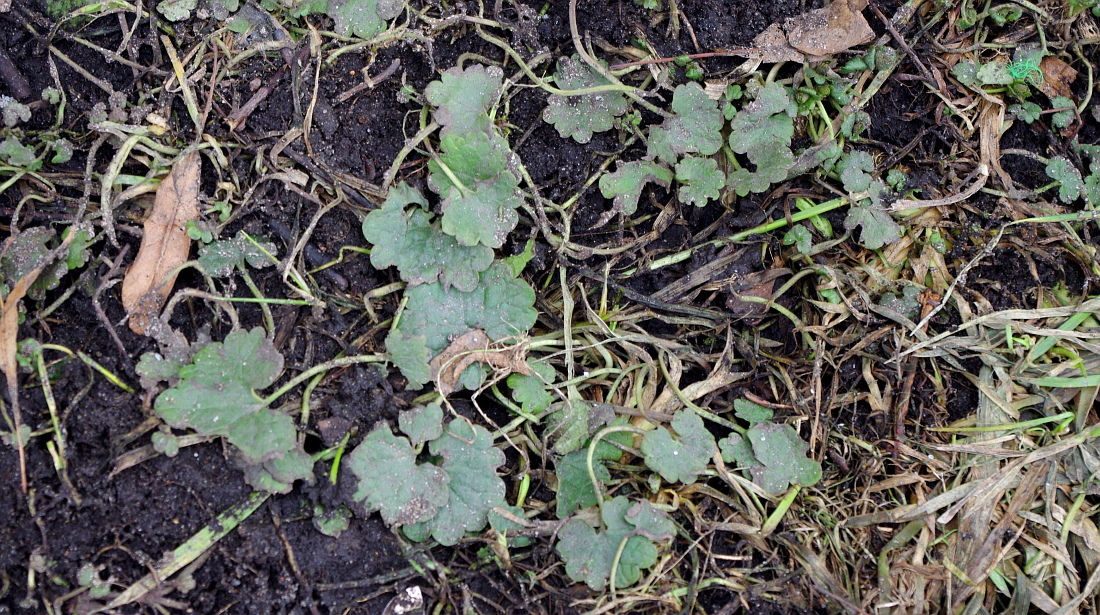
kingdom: Plantae
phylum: Tracheophyta
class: Magnoliopsida
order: Lamiales
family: Lamiaceae
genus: Glechoma
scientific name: Glechoma hederacea
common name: Ground ivy
